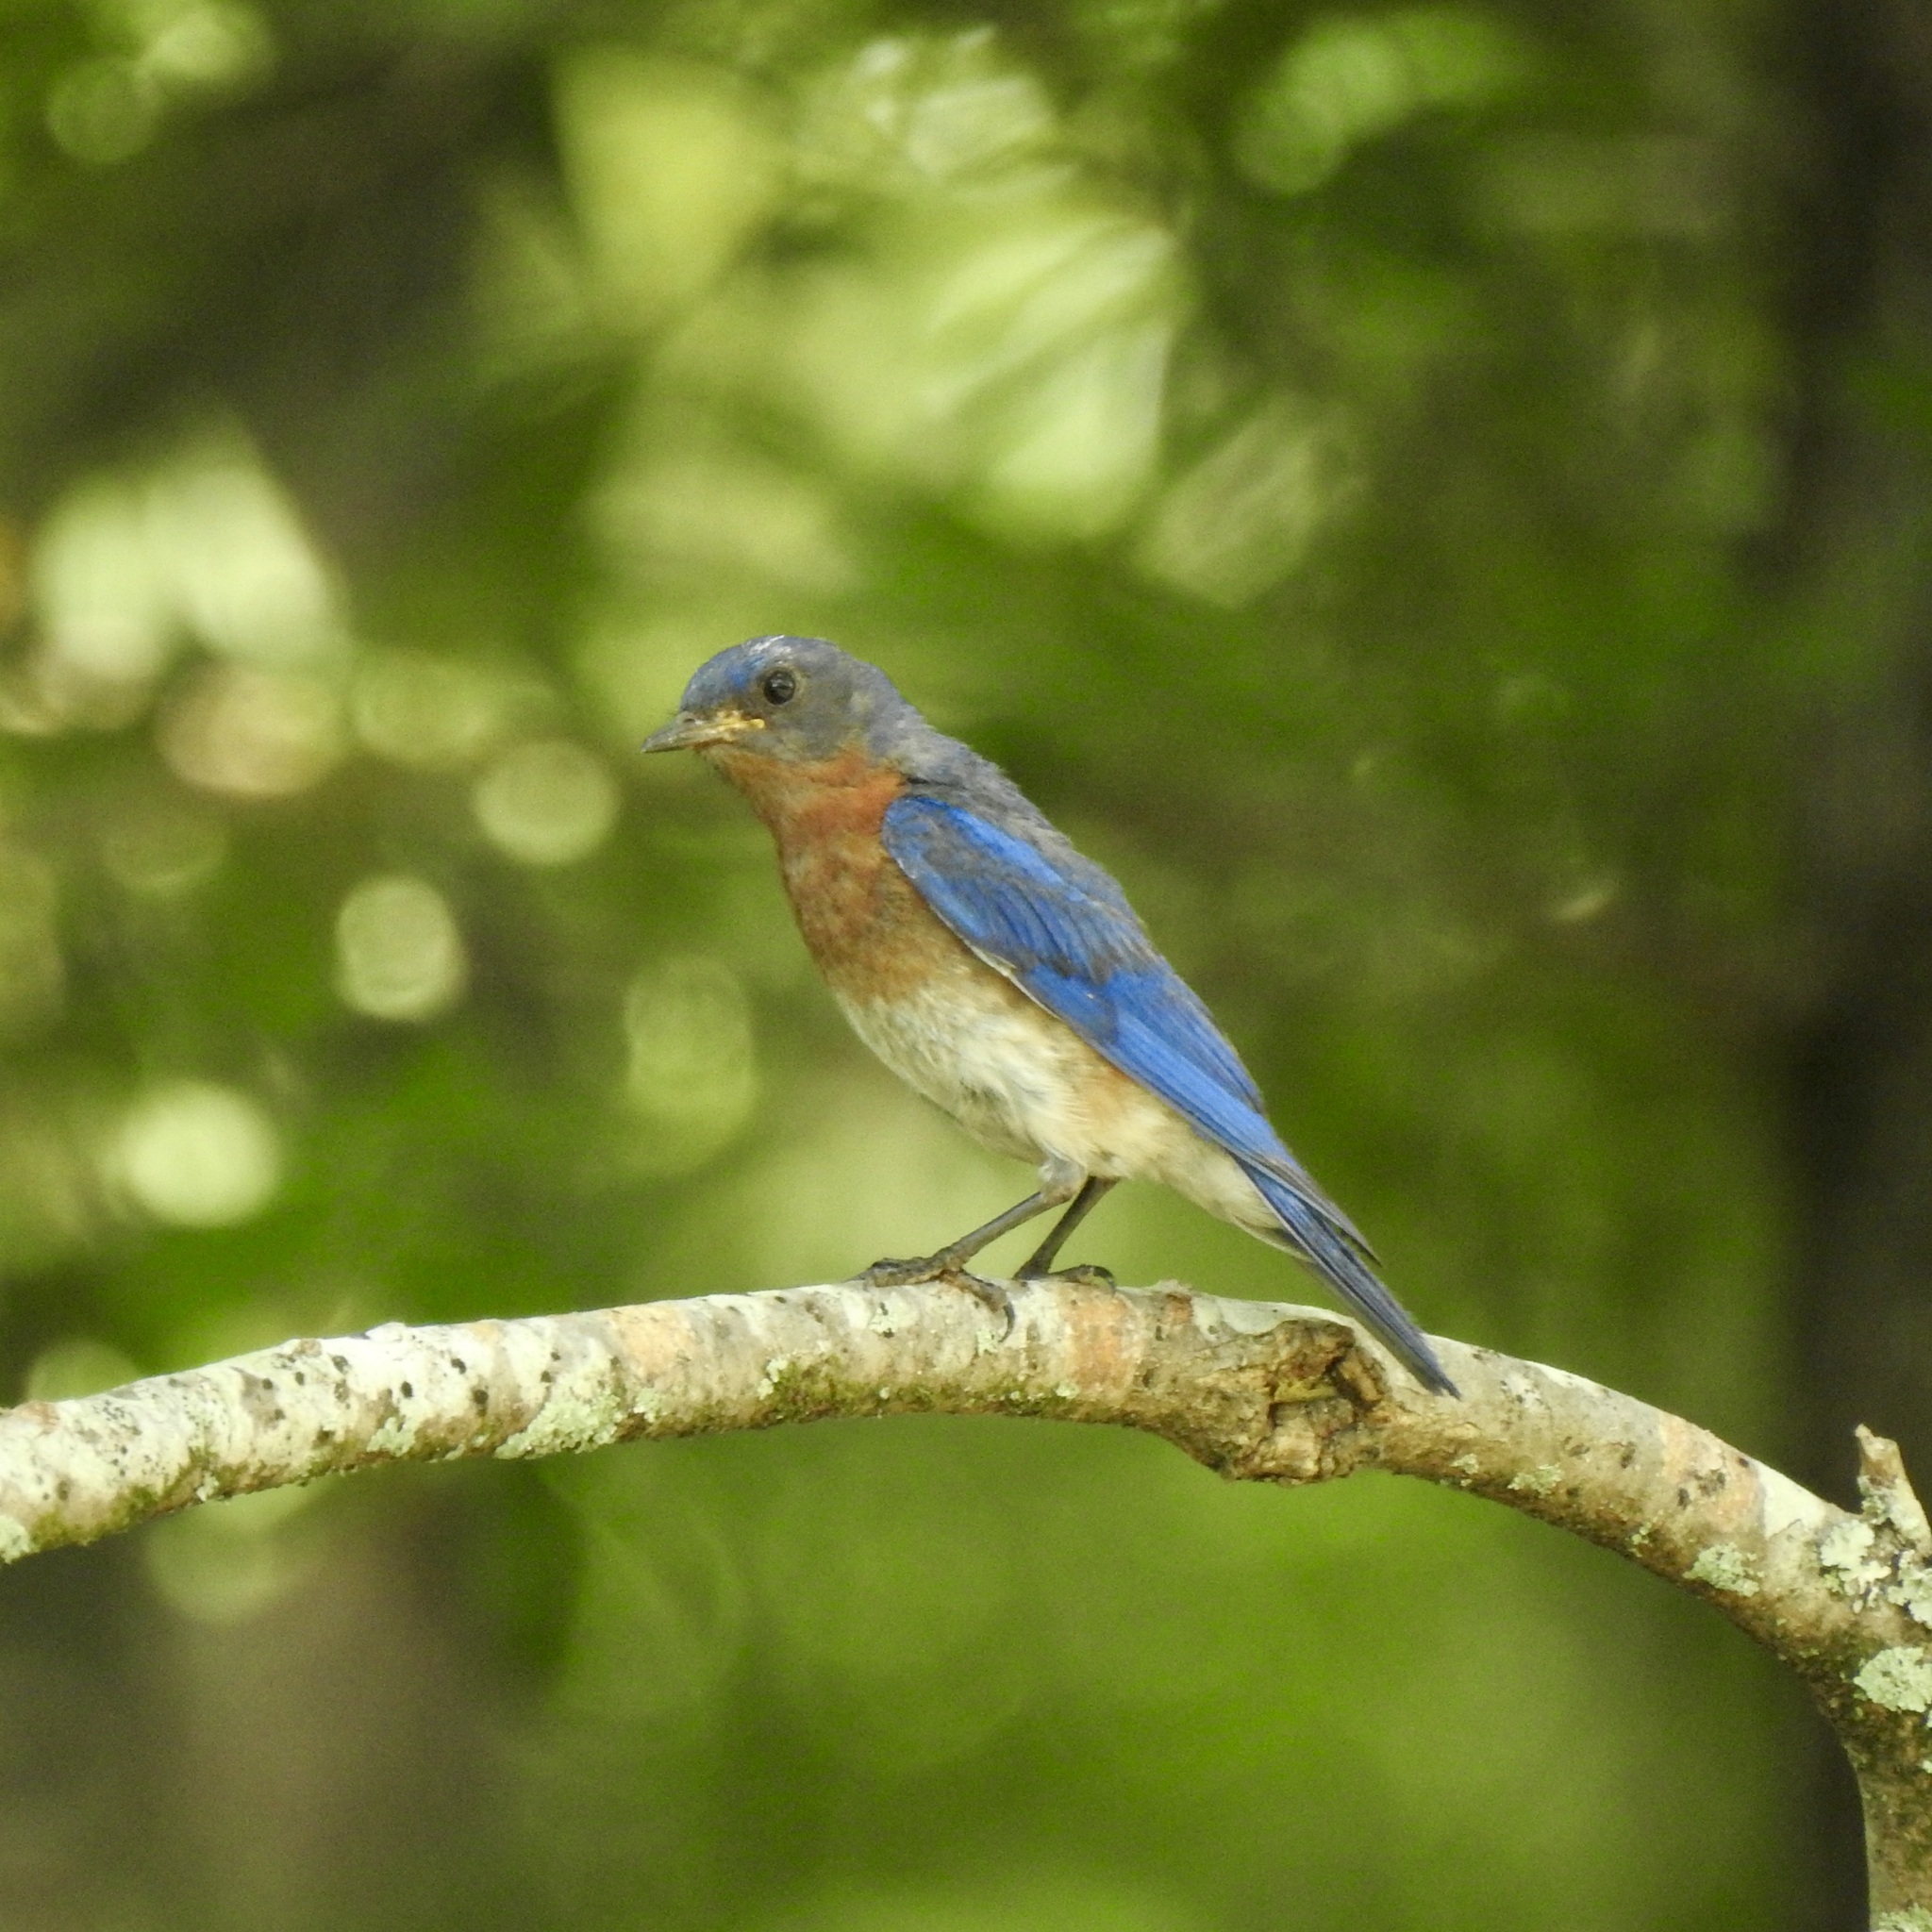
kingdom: Animalia
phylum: Chordata
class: Aves
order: Passeriformes
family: Turdidae
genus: Sialia
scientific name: Sialia sialis
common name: Eastern bluebird
